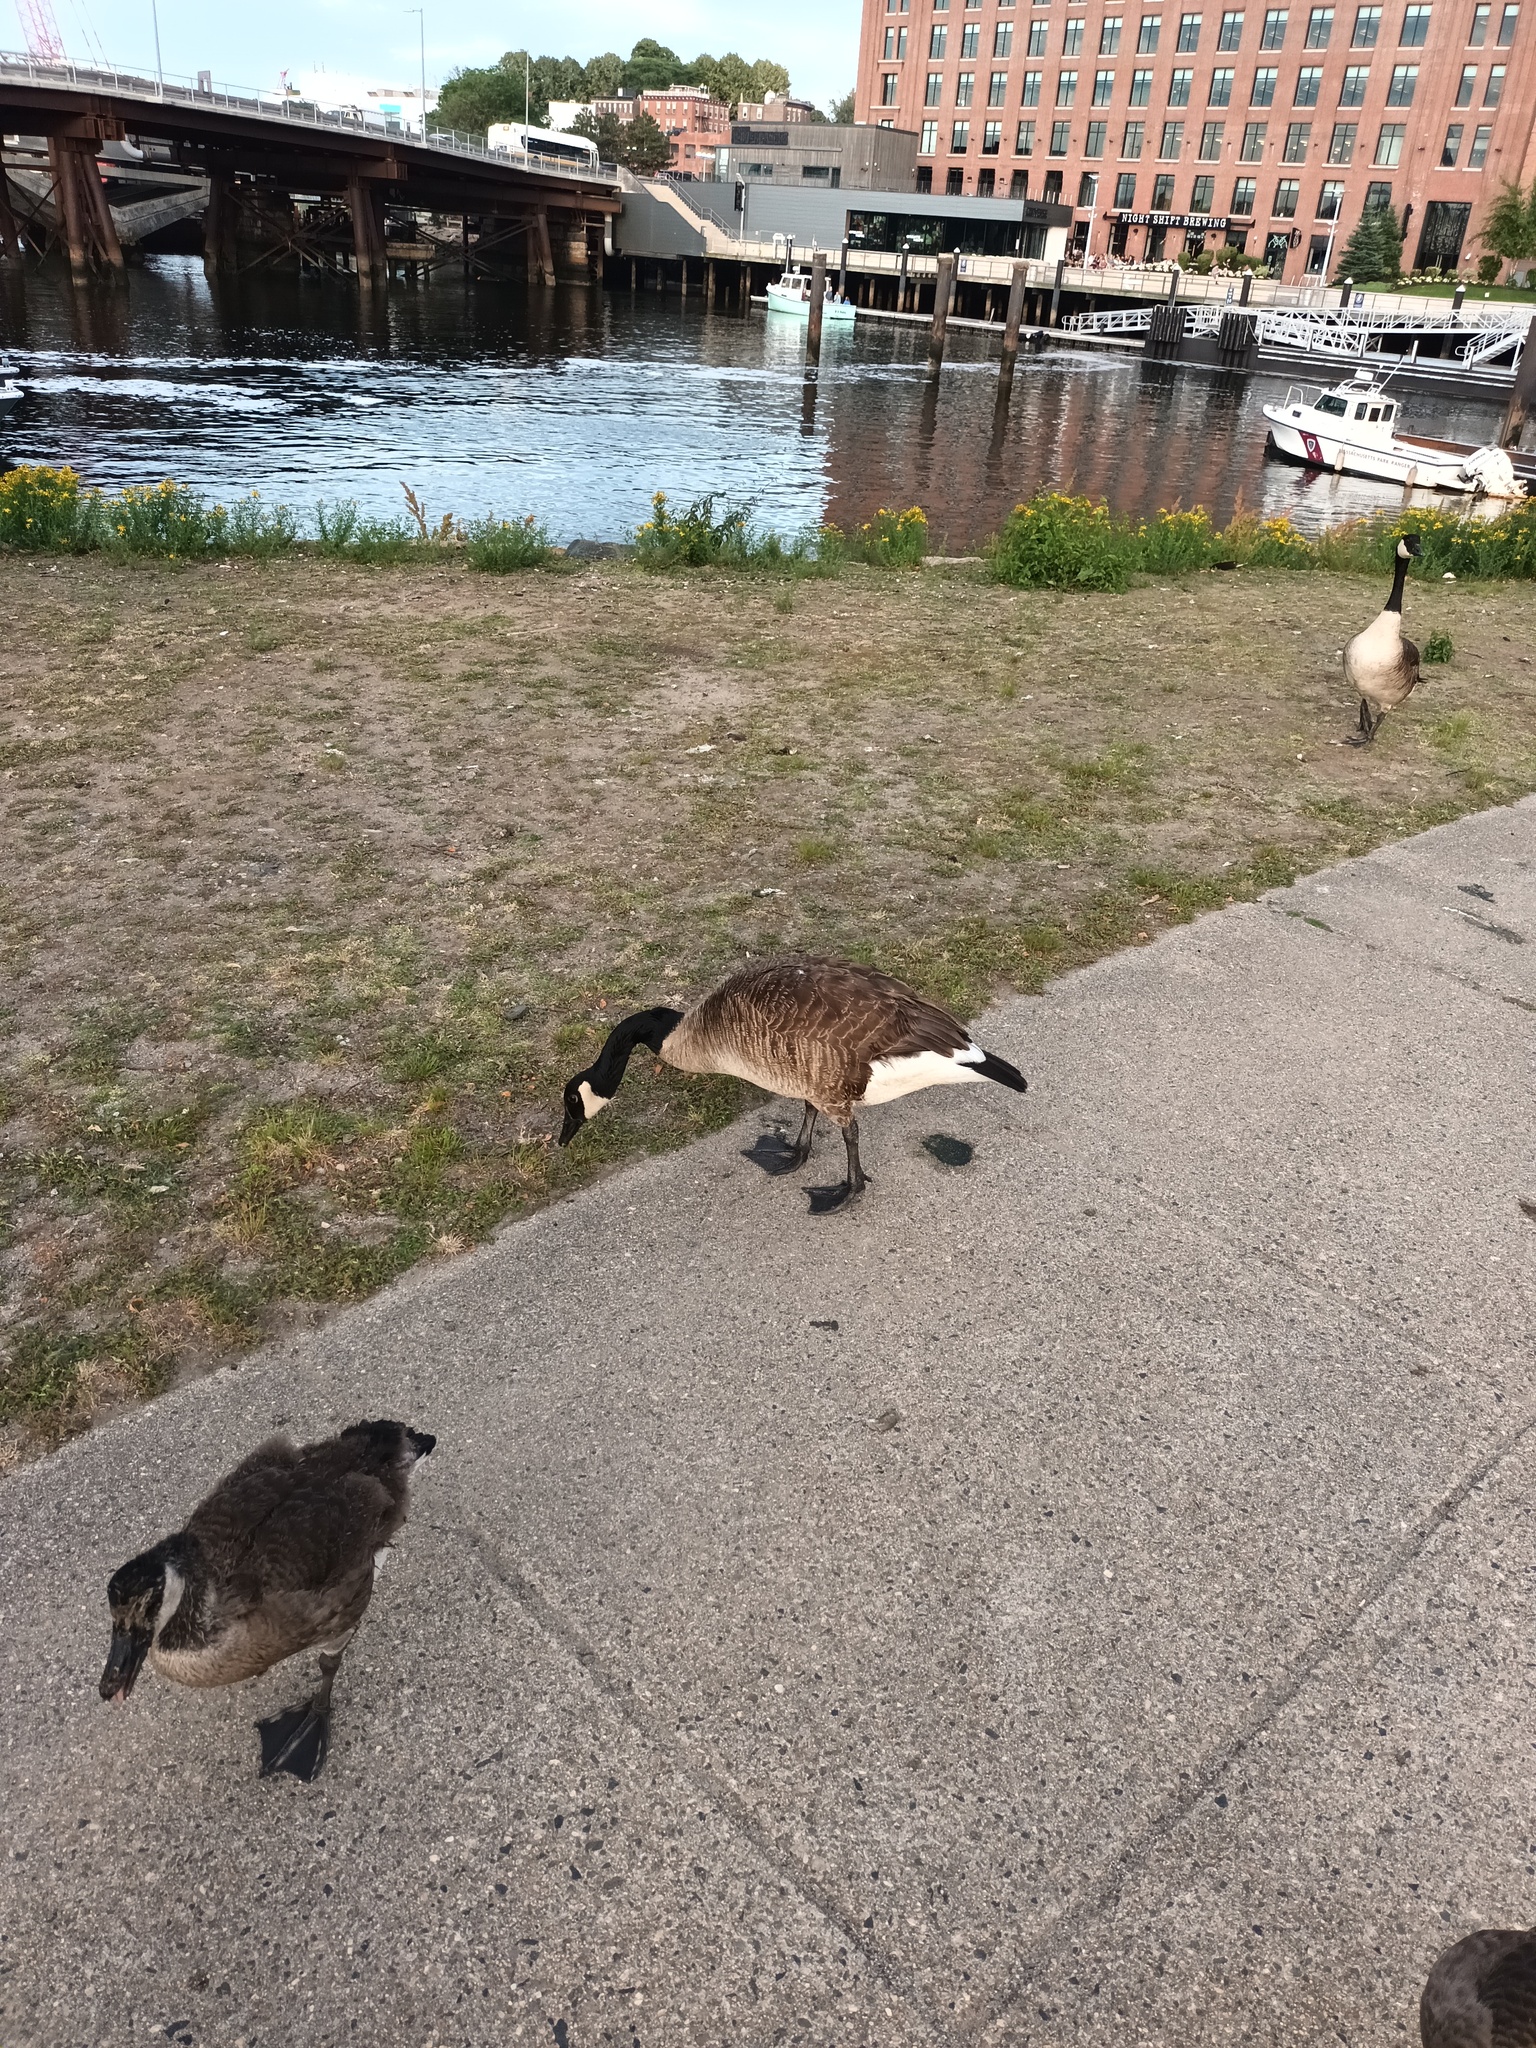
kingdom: Animalia
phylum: Chordata
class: Aves
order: Anseriformes
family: Anatidae
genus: Branta
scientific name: Branta canadensis
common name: Canada goose
